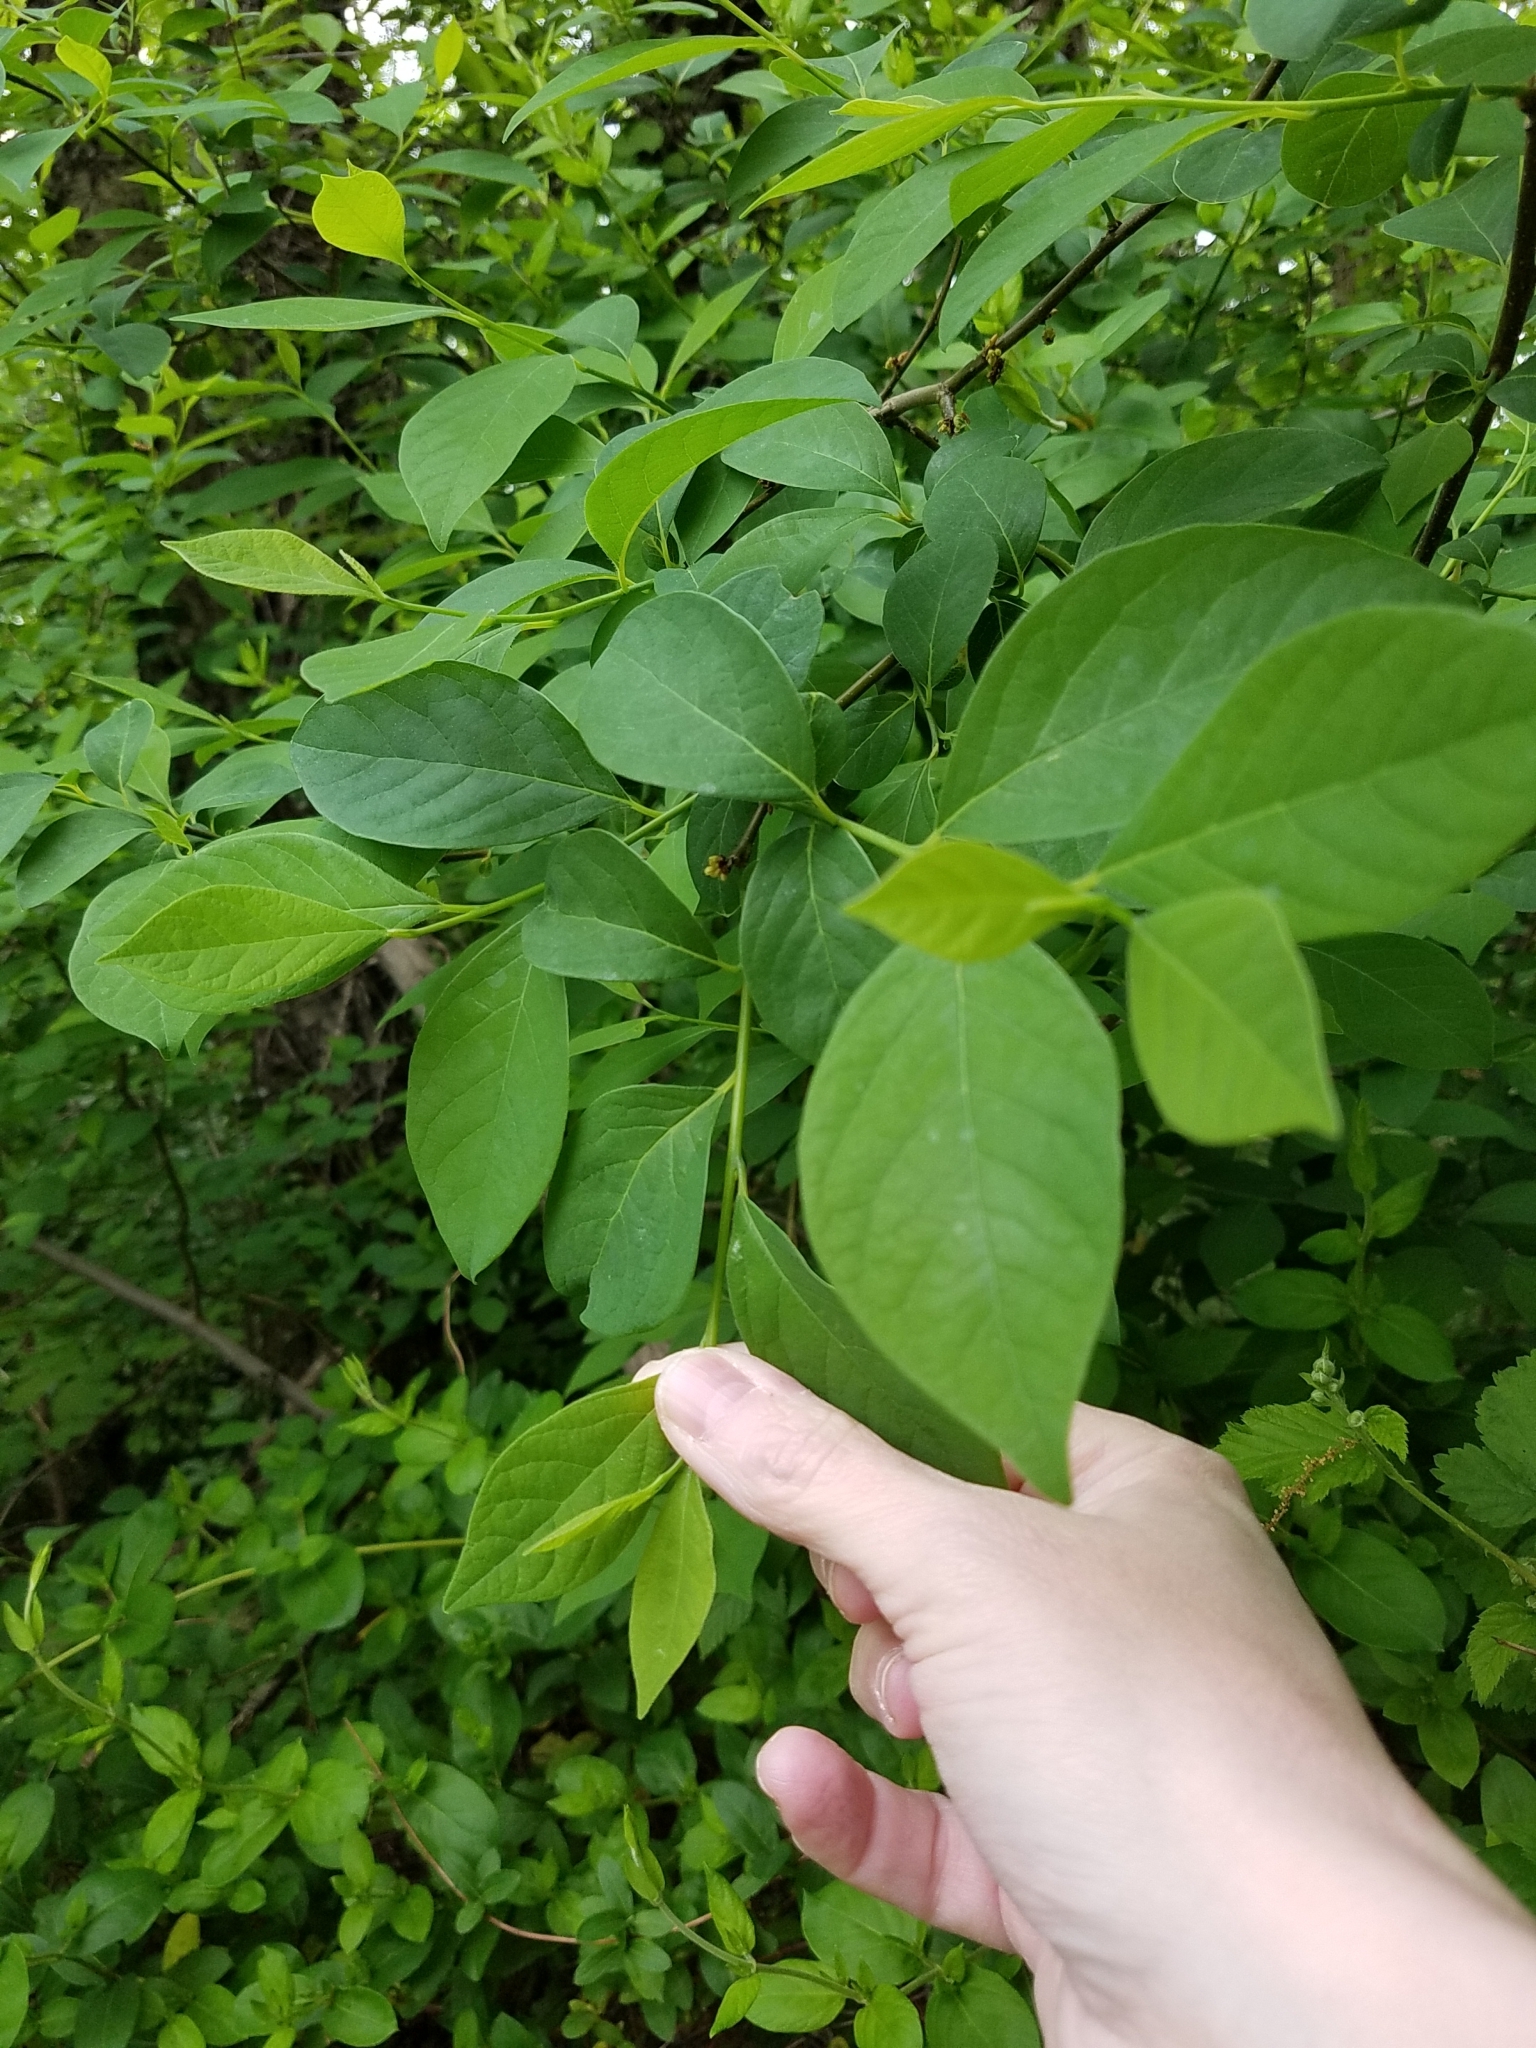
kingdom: Plantae
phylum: Tracheophyta
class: Magnoliopsida
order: Laurales
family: Lauraceae
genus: Lindera
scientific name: Lindera benzoin
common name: Spicebush
